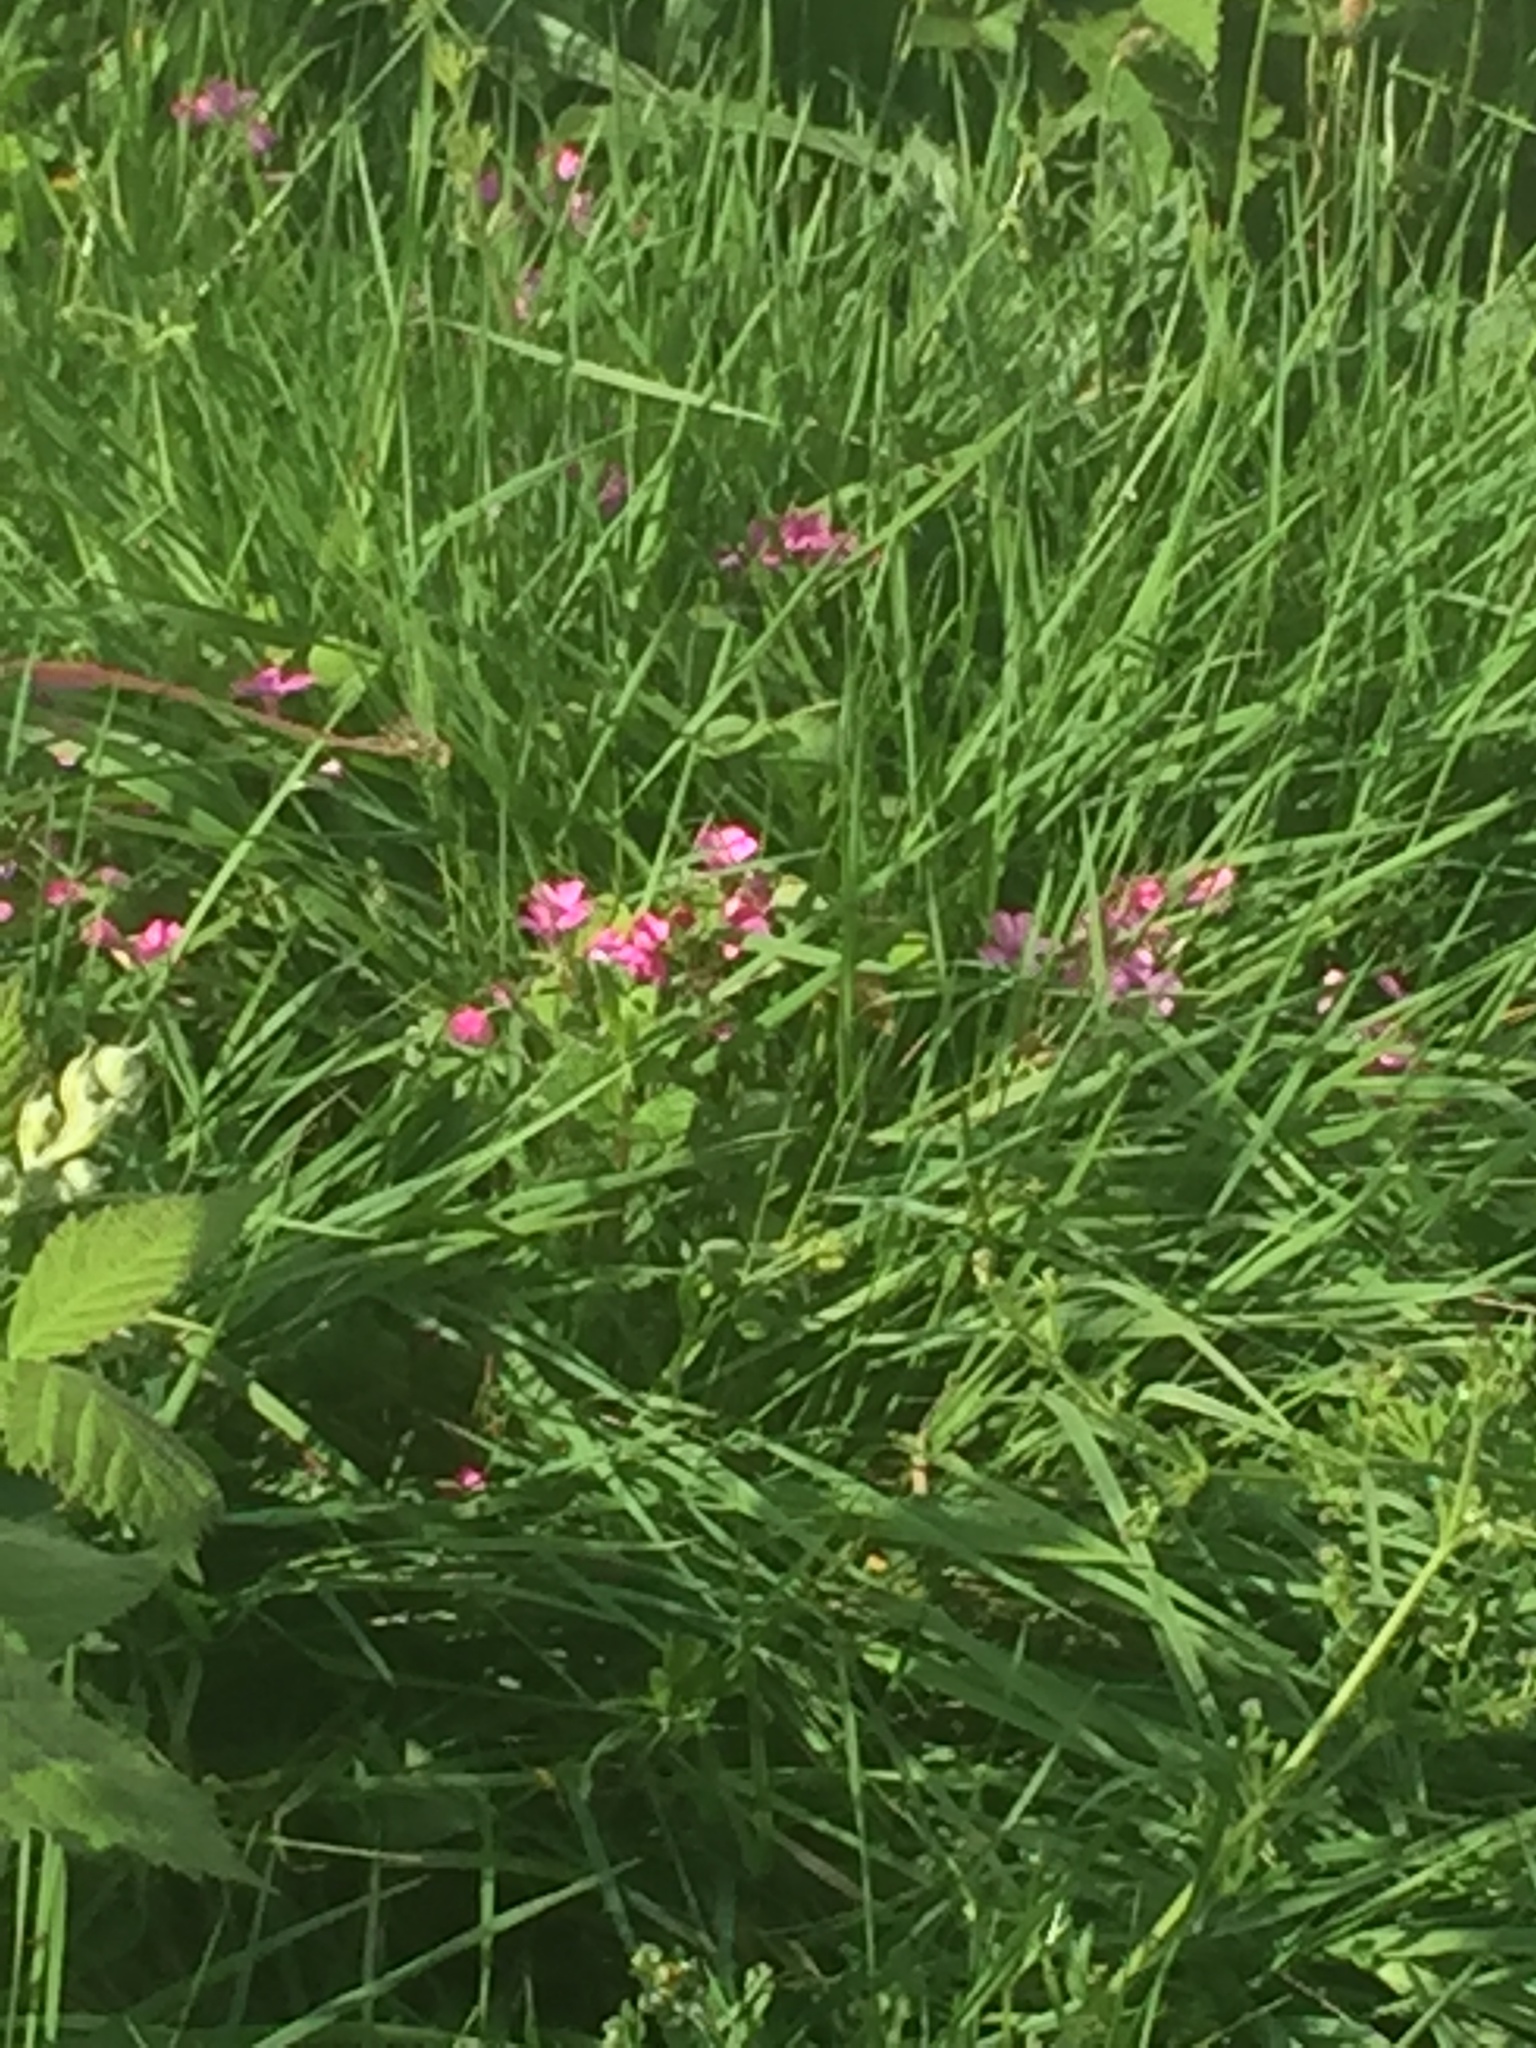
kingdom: Plantae
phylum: Tracheophyta
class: Magnoliopsida
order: Oxalidales
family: Oxalidaceae
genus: Oxalis
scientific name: Oxalis articulata
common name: Pink-sorrel
